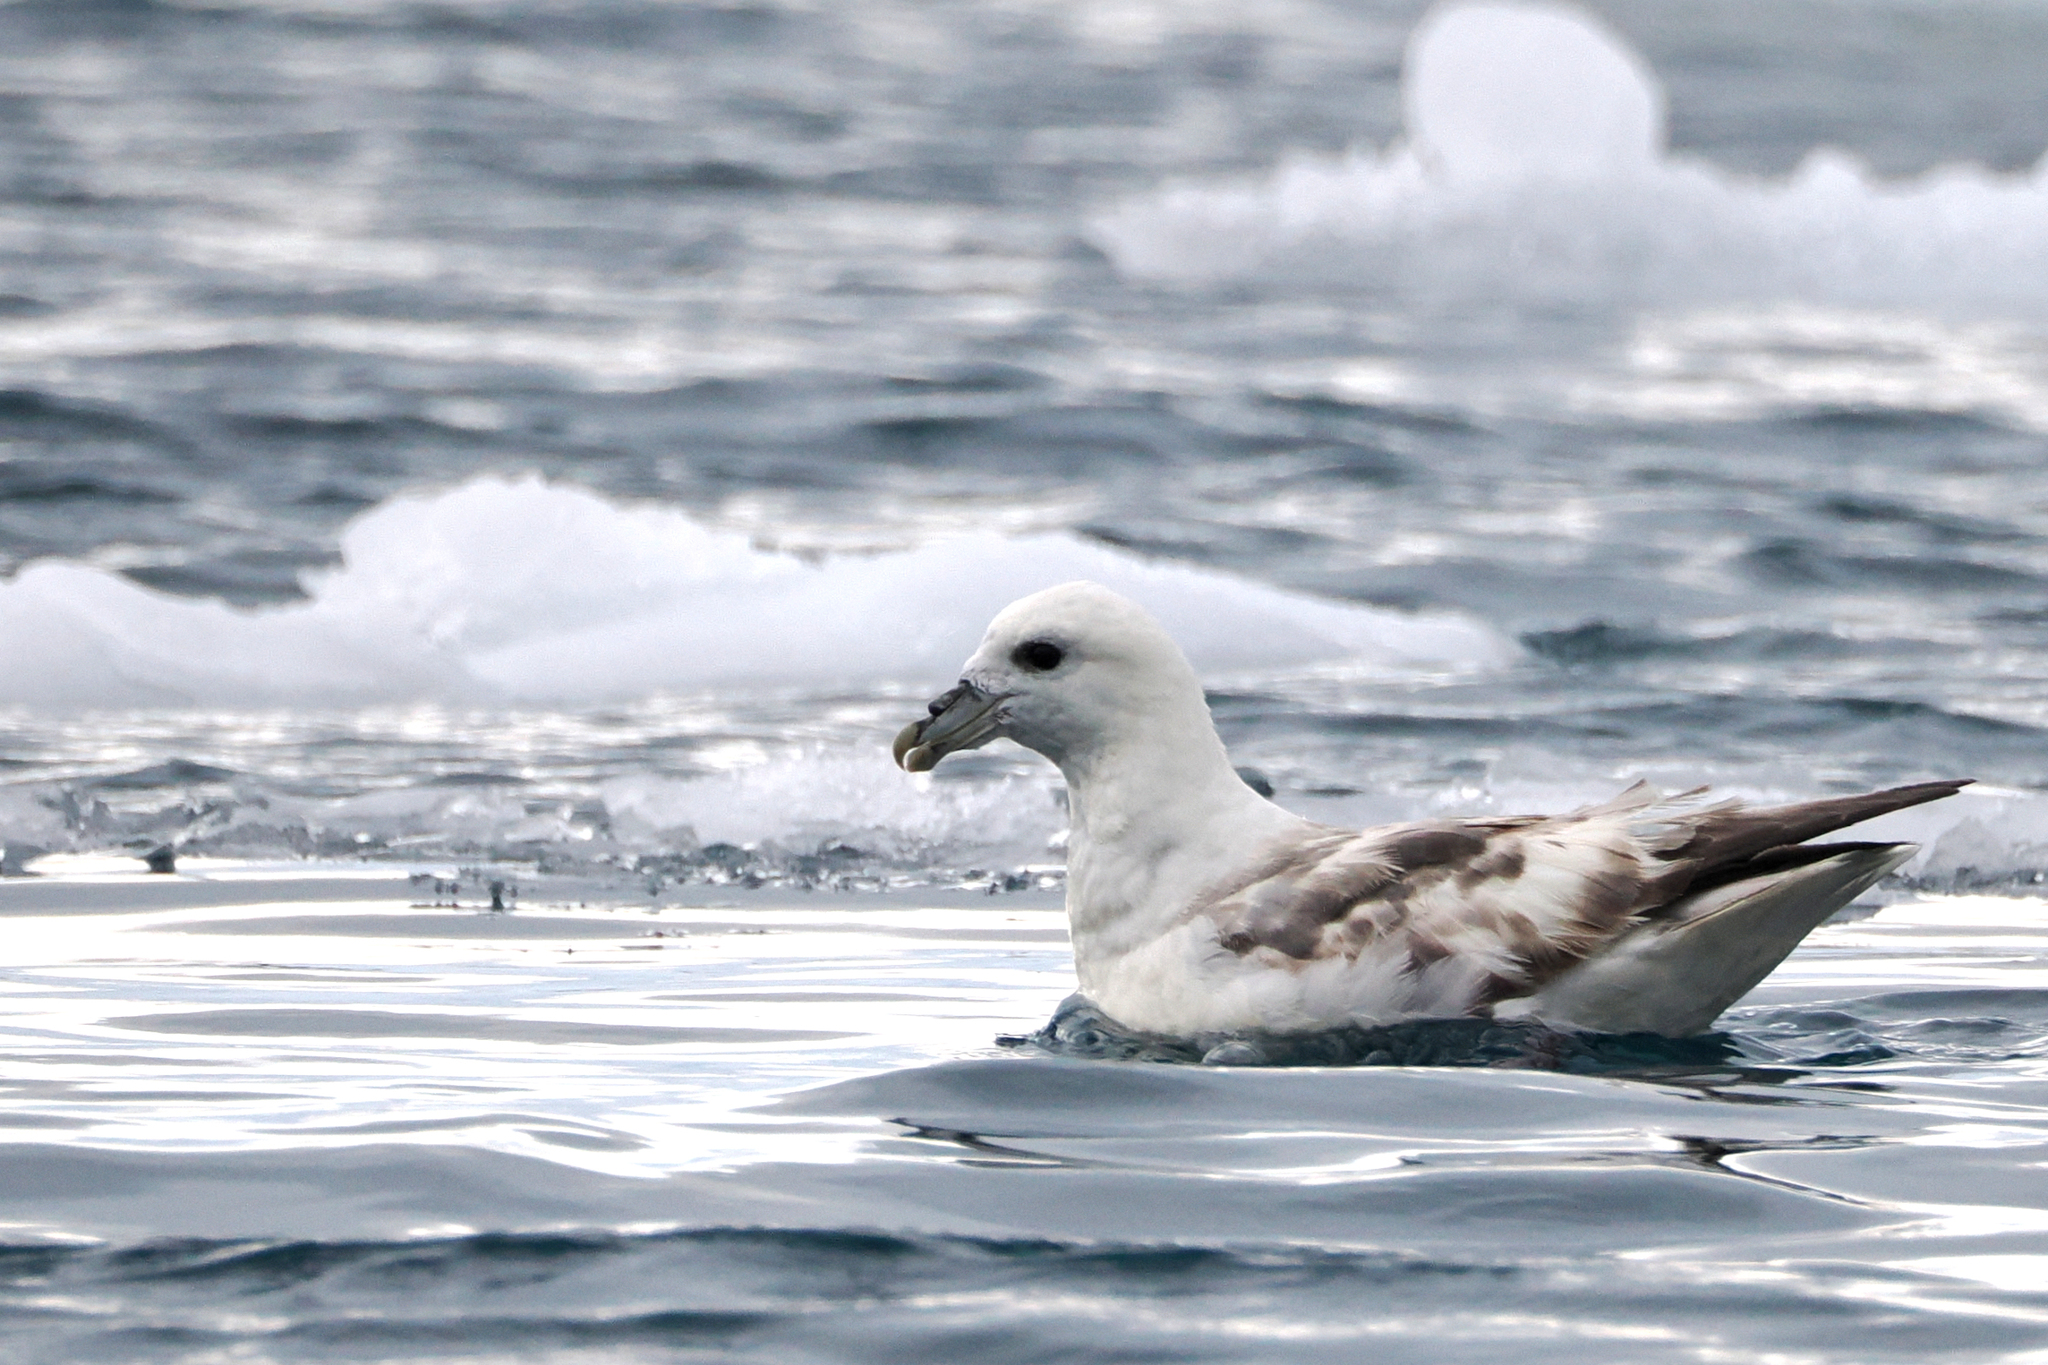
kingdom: Animalia
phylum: Chordata
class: Aves
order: Procellariiformes
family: Procellariidae
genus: Fulmarus
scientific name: Fulmarus glacialis
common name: Northern fulmar
